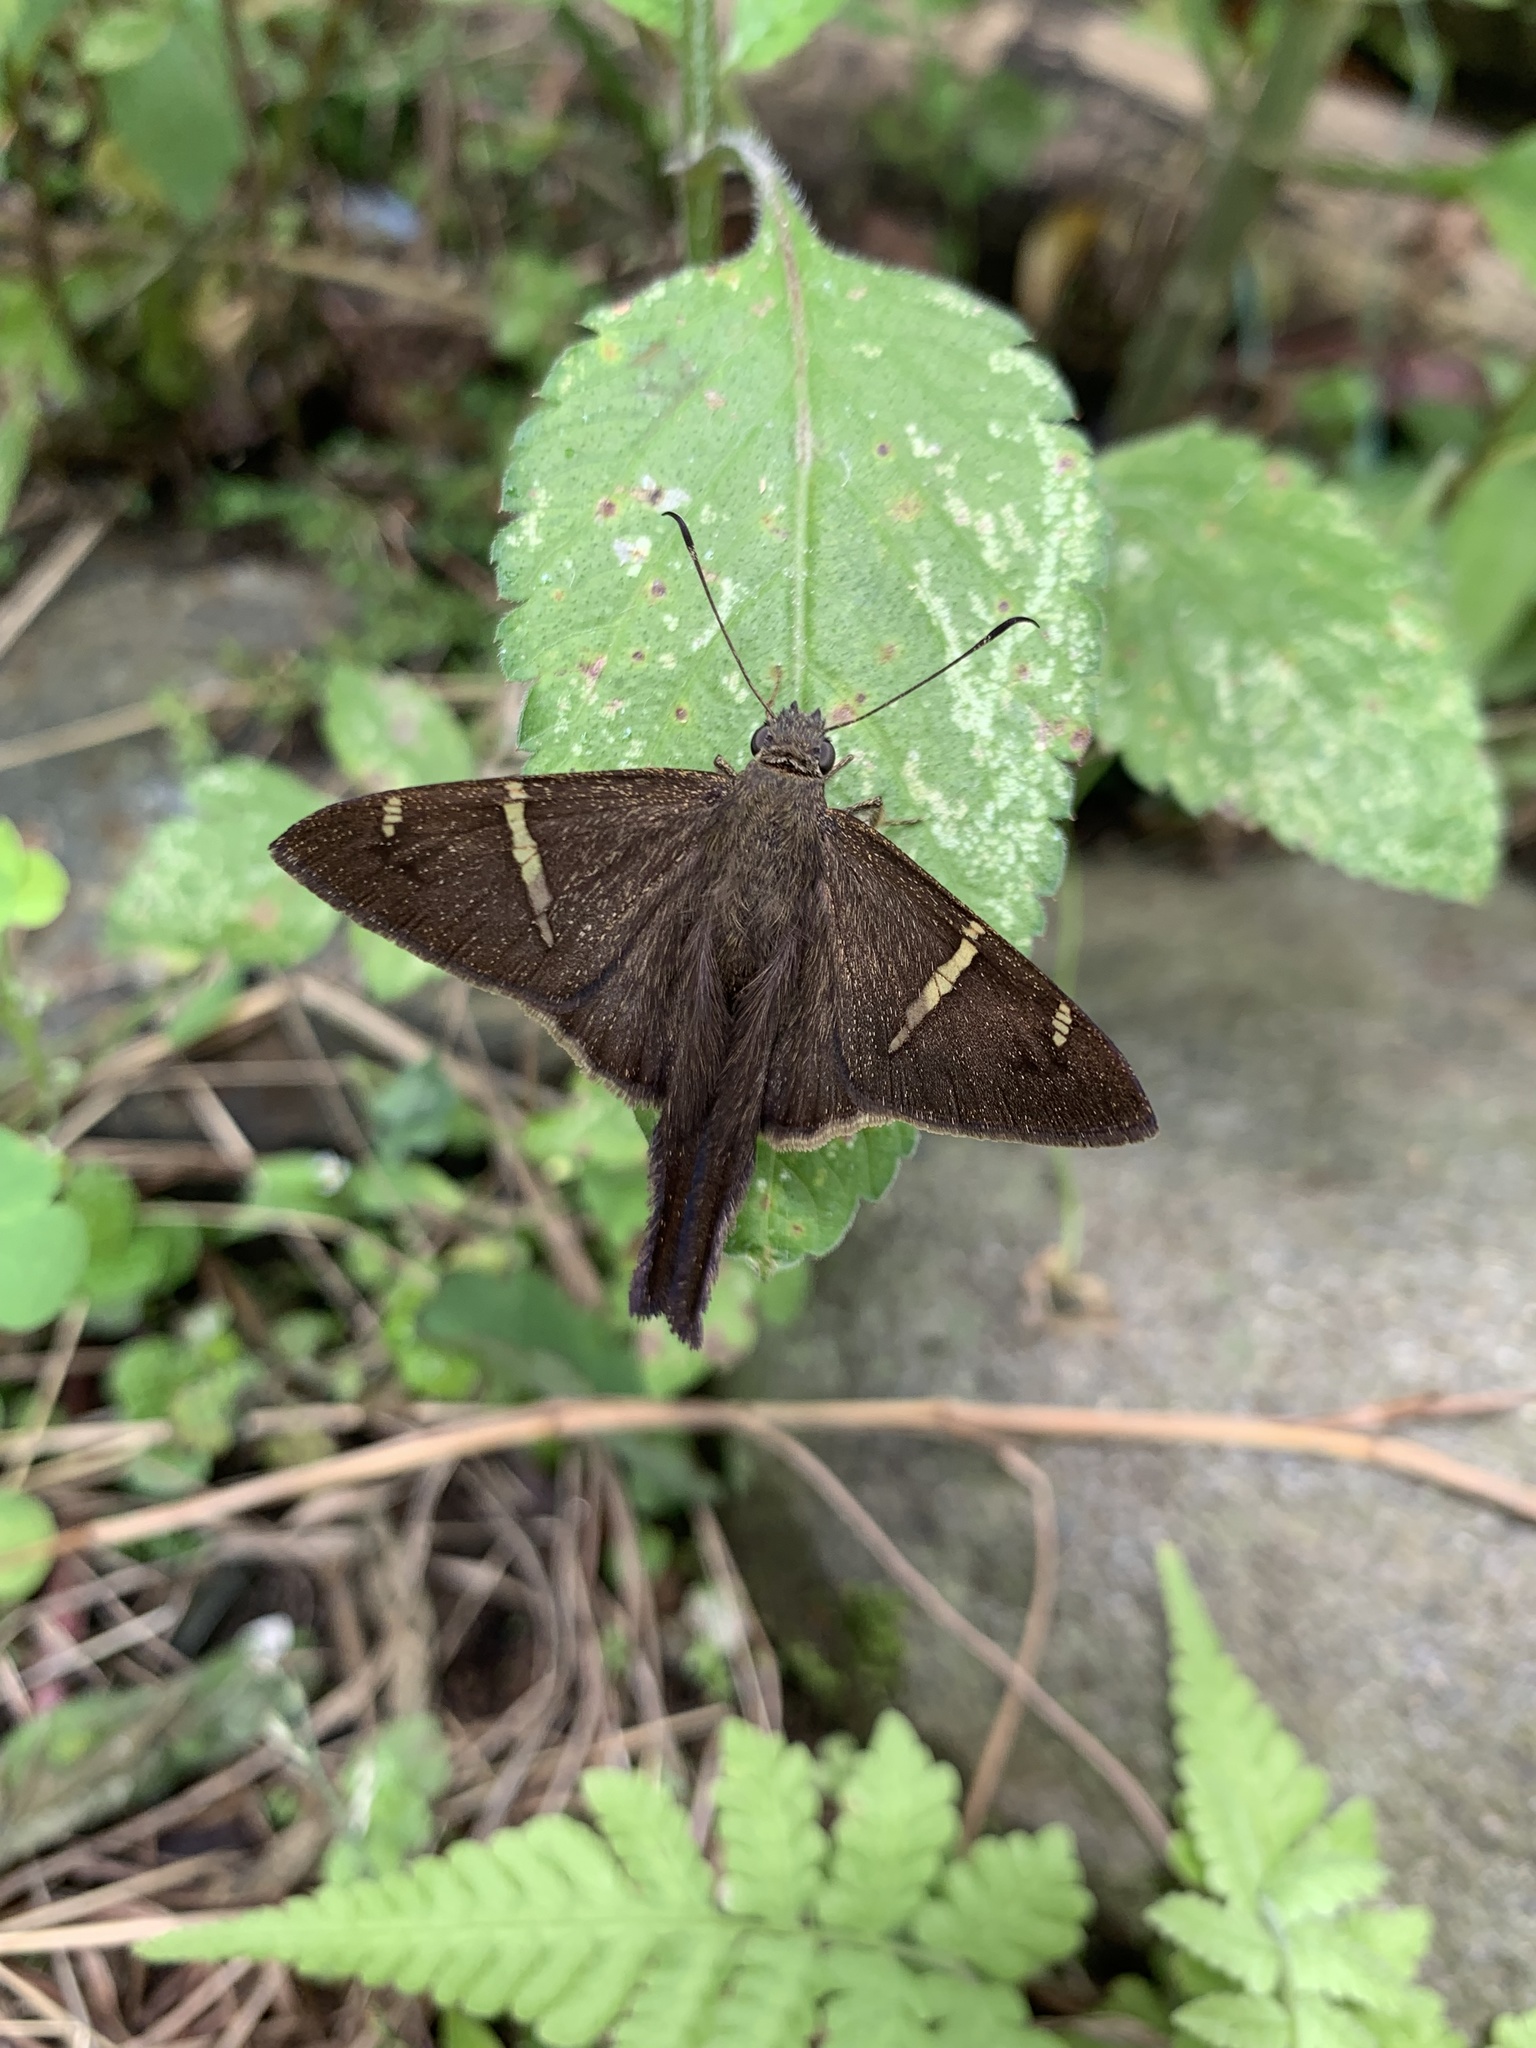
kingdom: Animalia
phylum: Arthropoda
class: Insecta
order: Lepidoptera
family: Hesperiidae
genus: Urbanus
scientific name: Urbanus teleus
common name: Teleus longtail
